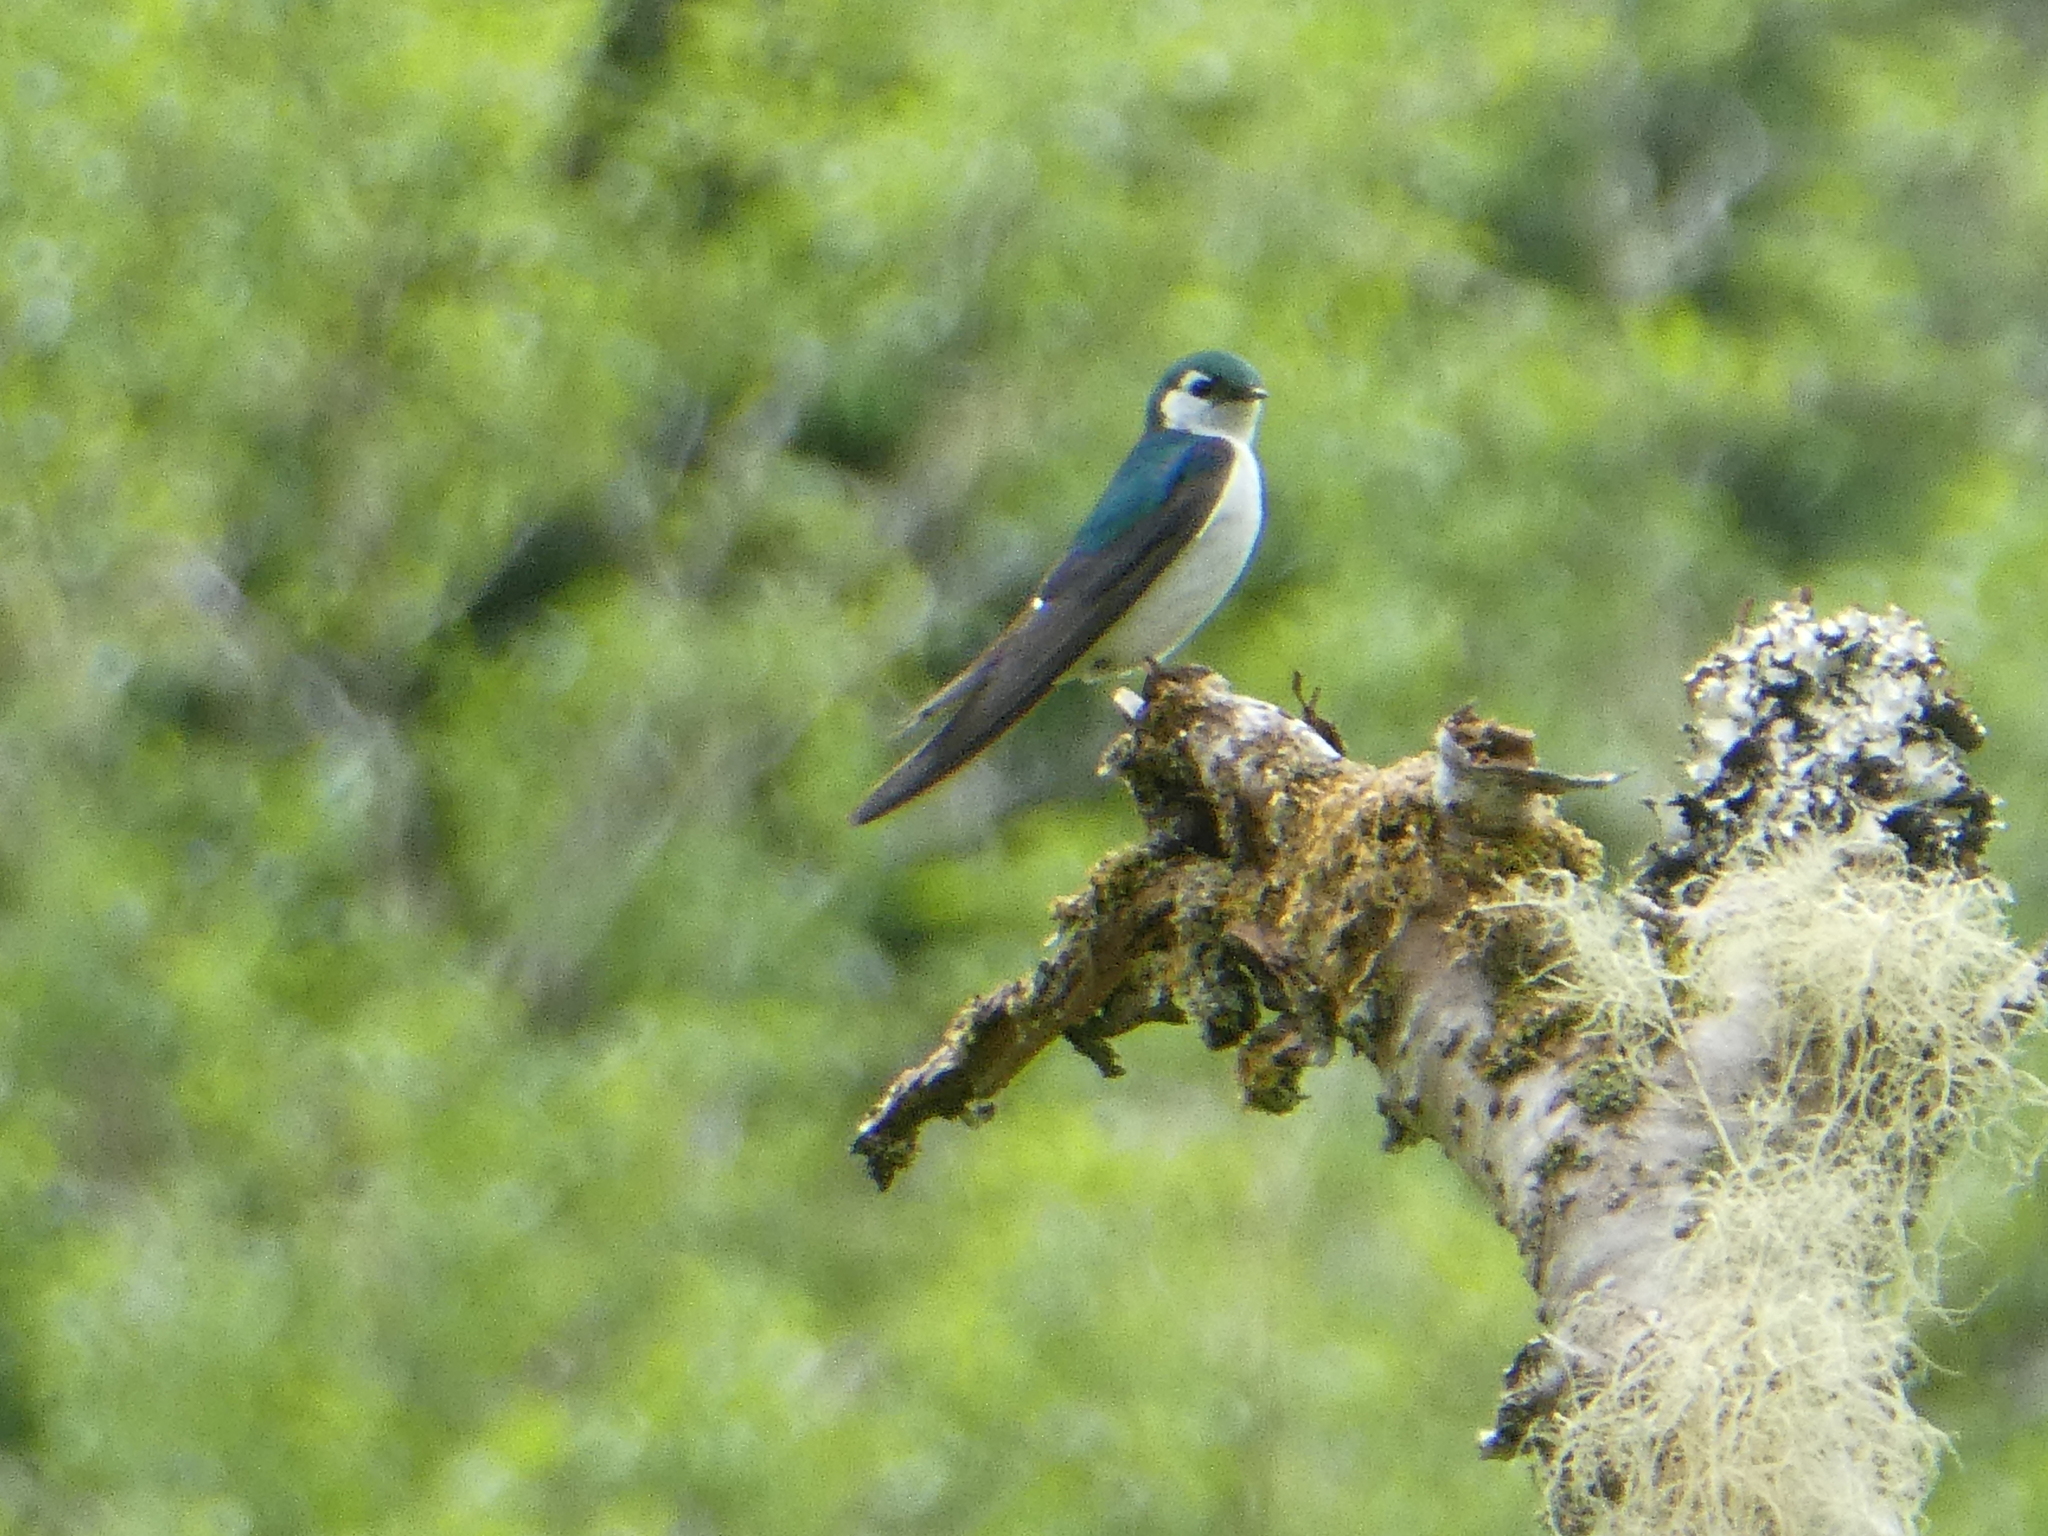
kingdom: Animalia
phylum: Chordata
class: Aves
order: Passeriformes
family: Hirundinidae
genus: Tachycineta
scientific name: Tachycineta thalassina
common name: Violet-green swallow
